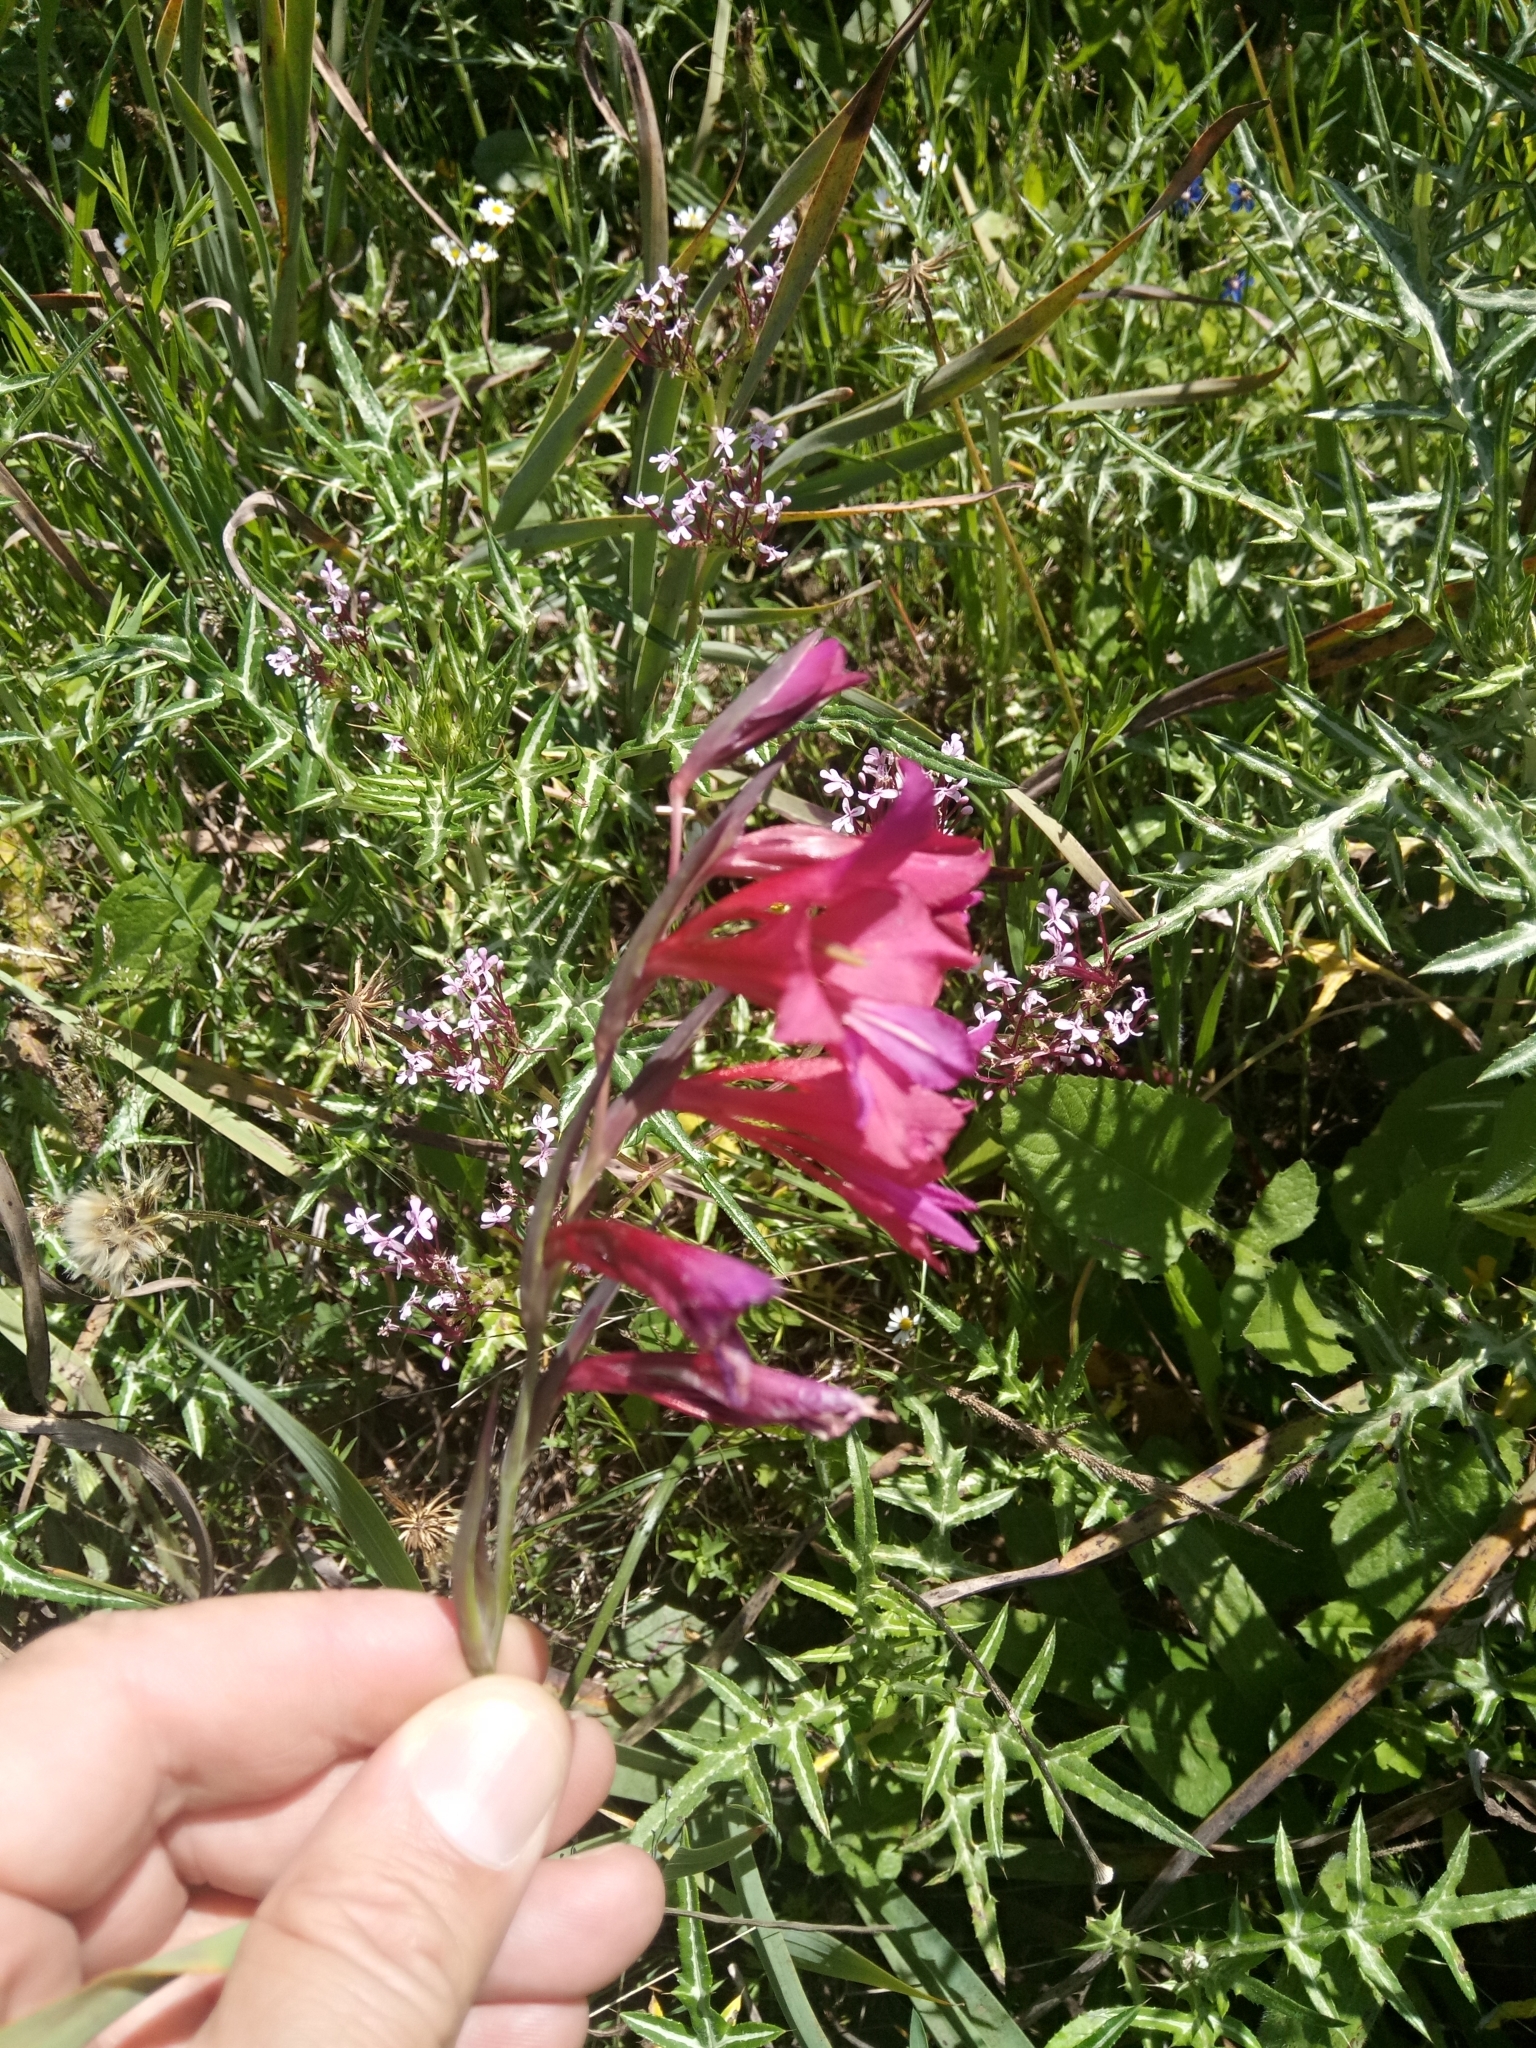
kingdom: Plantae
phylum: Tracheophyta
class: Liliopsida
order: Asparagales
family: Iridaceae
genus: Gladiolus
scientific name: Gladiolus italicus
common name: Field gladiolus
